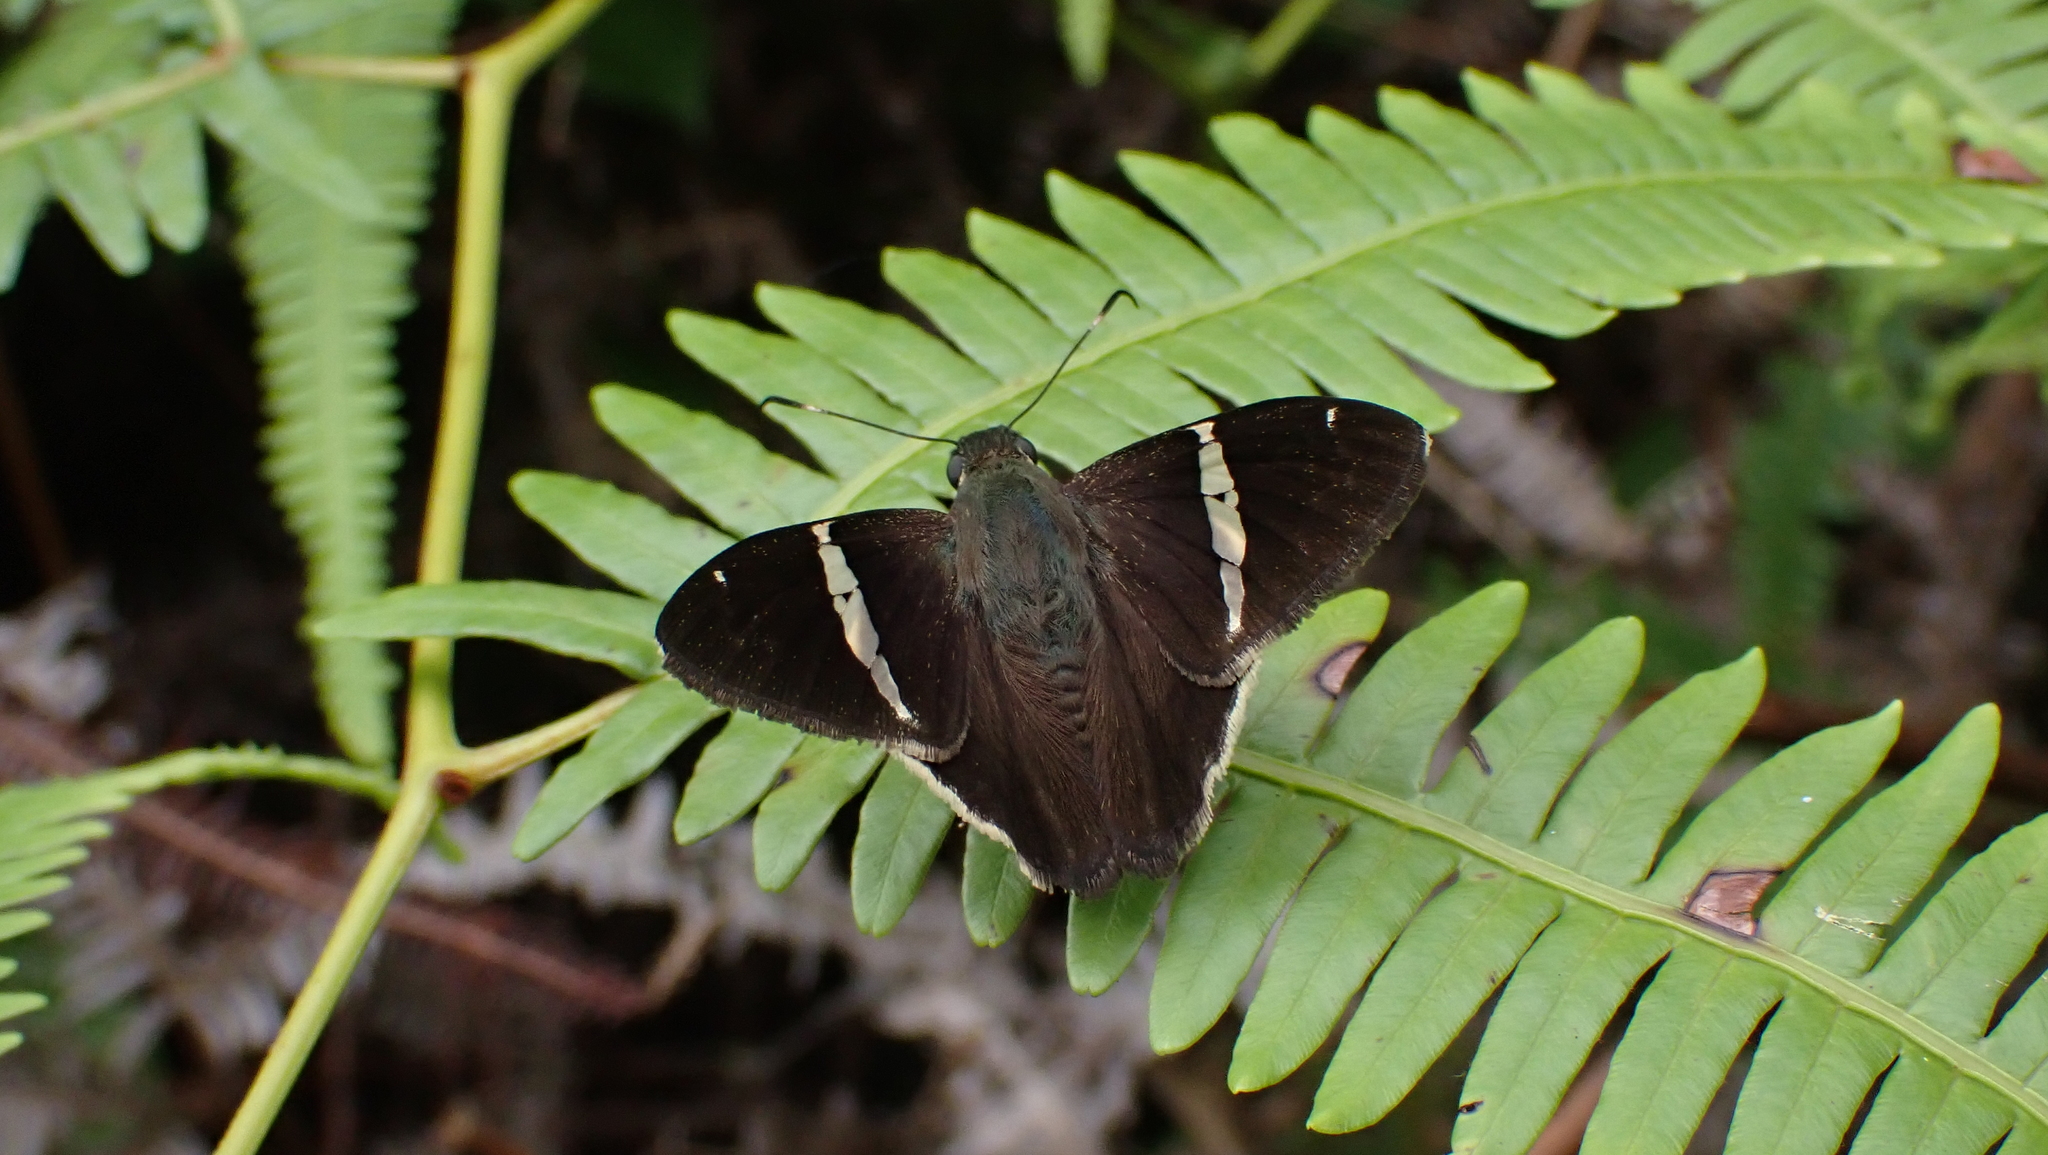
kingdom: Animalia
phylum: Arthropoda
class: Insecta
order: Lepidoptera
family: Hesperiidae
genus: Autochton
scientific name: Autochton longipennis
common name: Spike banded-skipper
